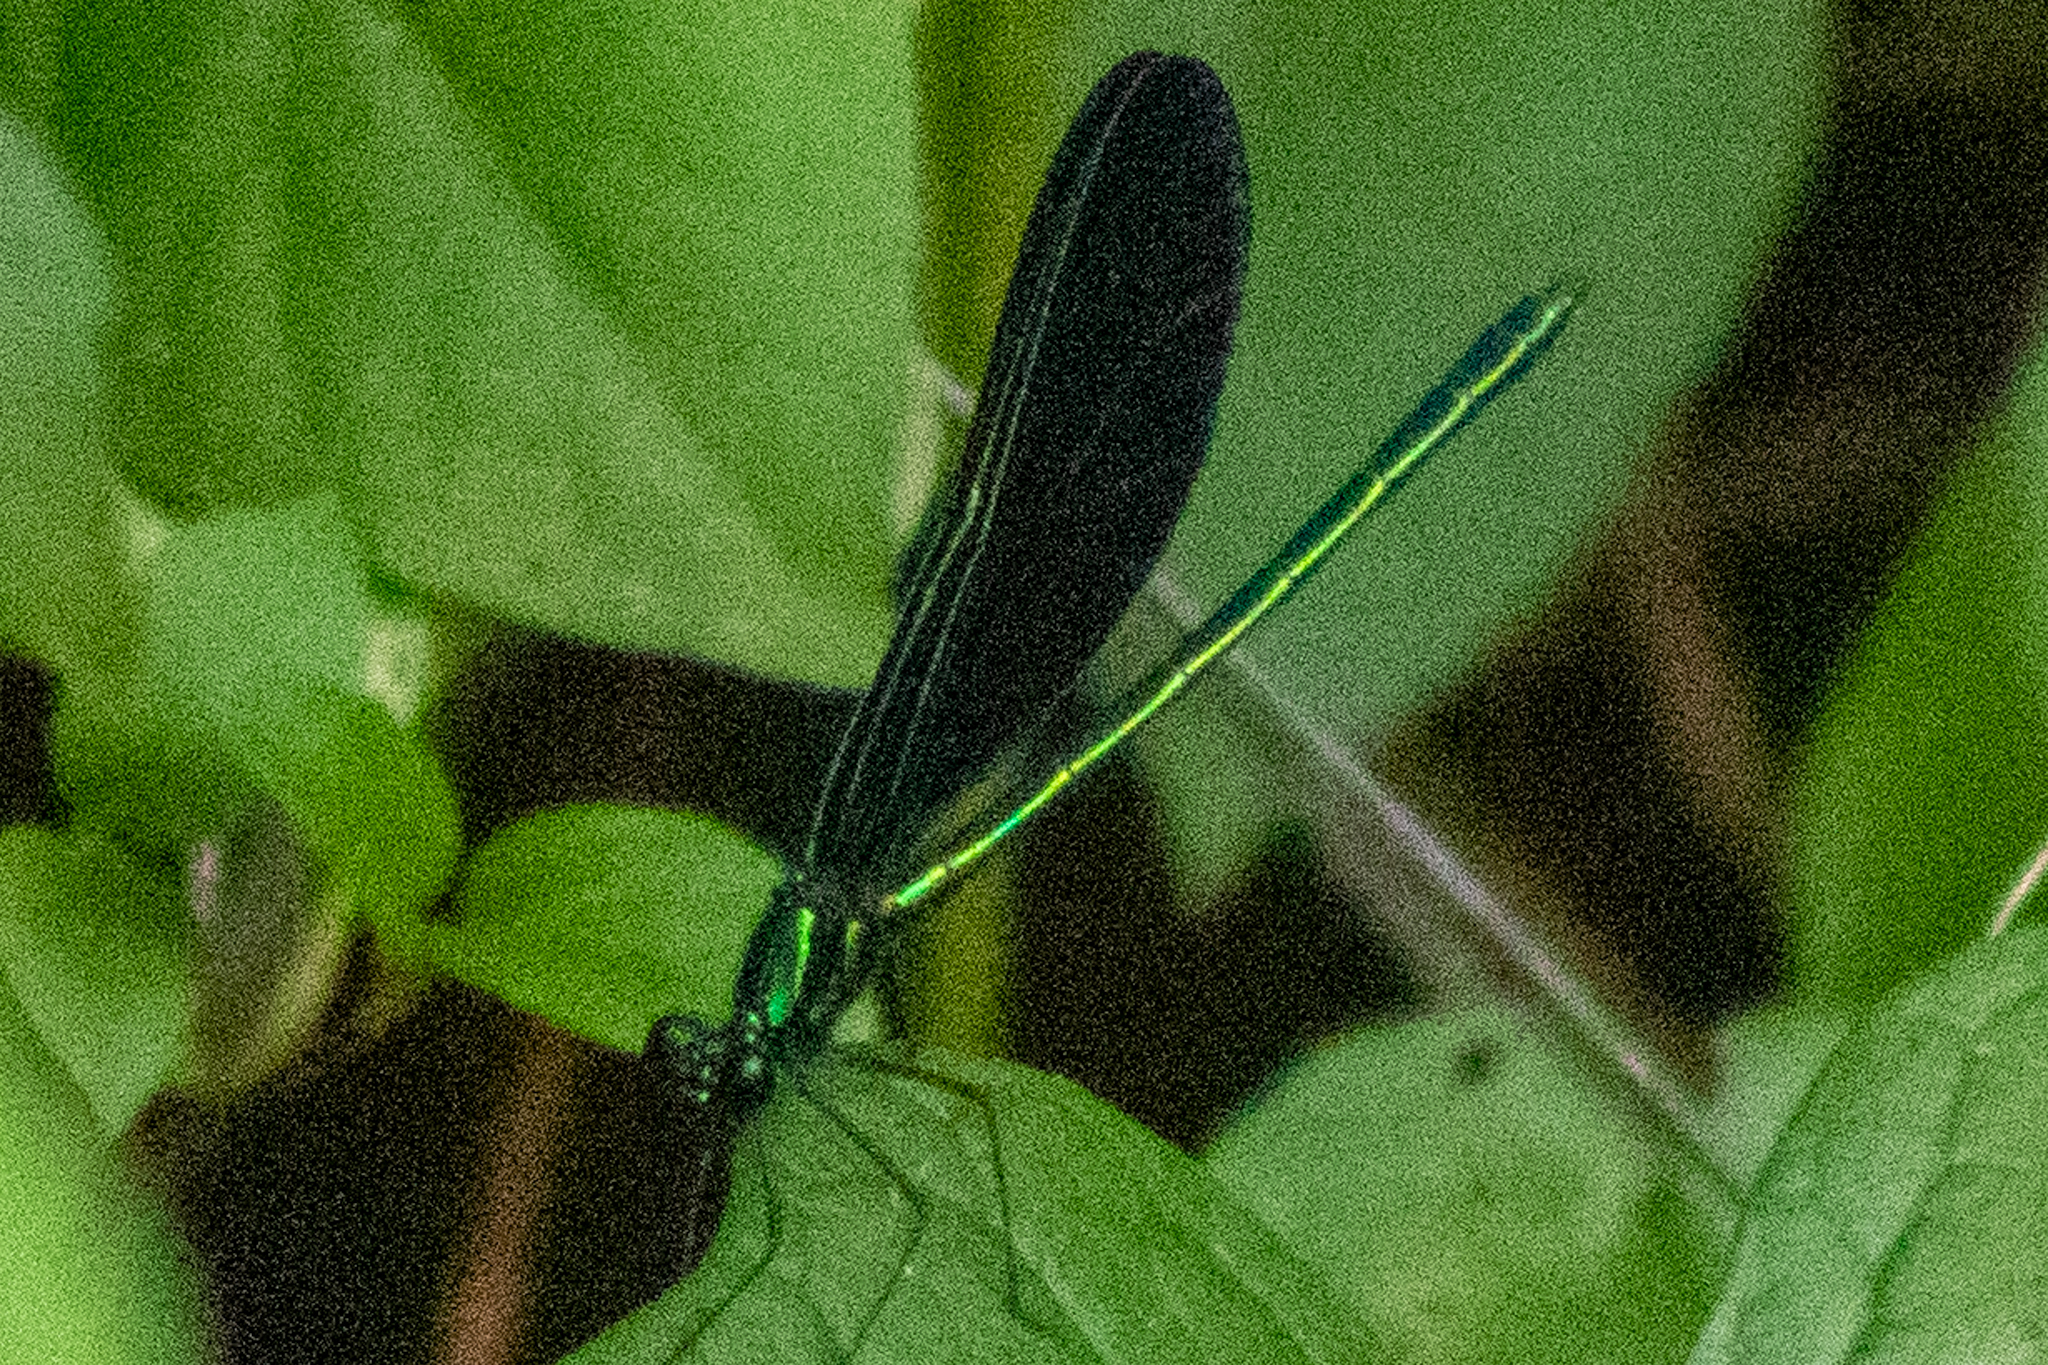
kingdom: Animalia
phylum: Arthropoda
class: Insecta
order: Odonata
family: Calopterygidae
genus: Calopteryx
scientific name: Calopteryx maculata
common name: Ebony jewelwing
